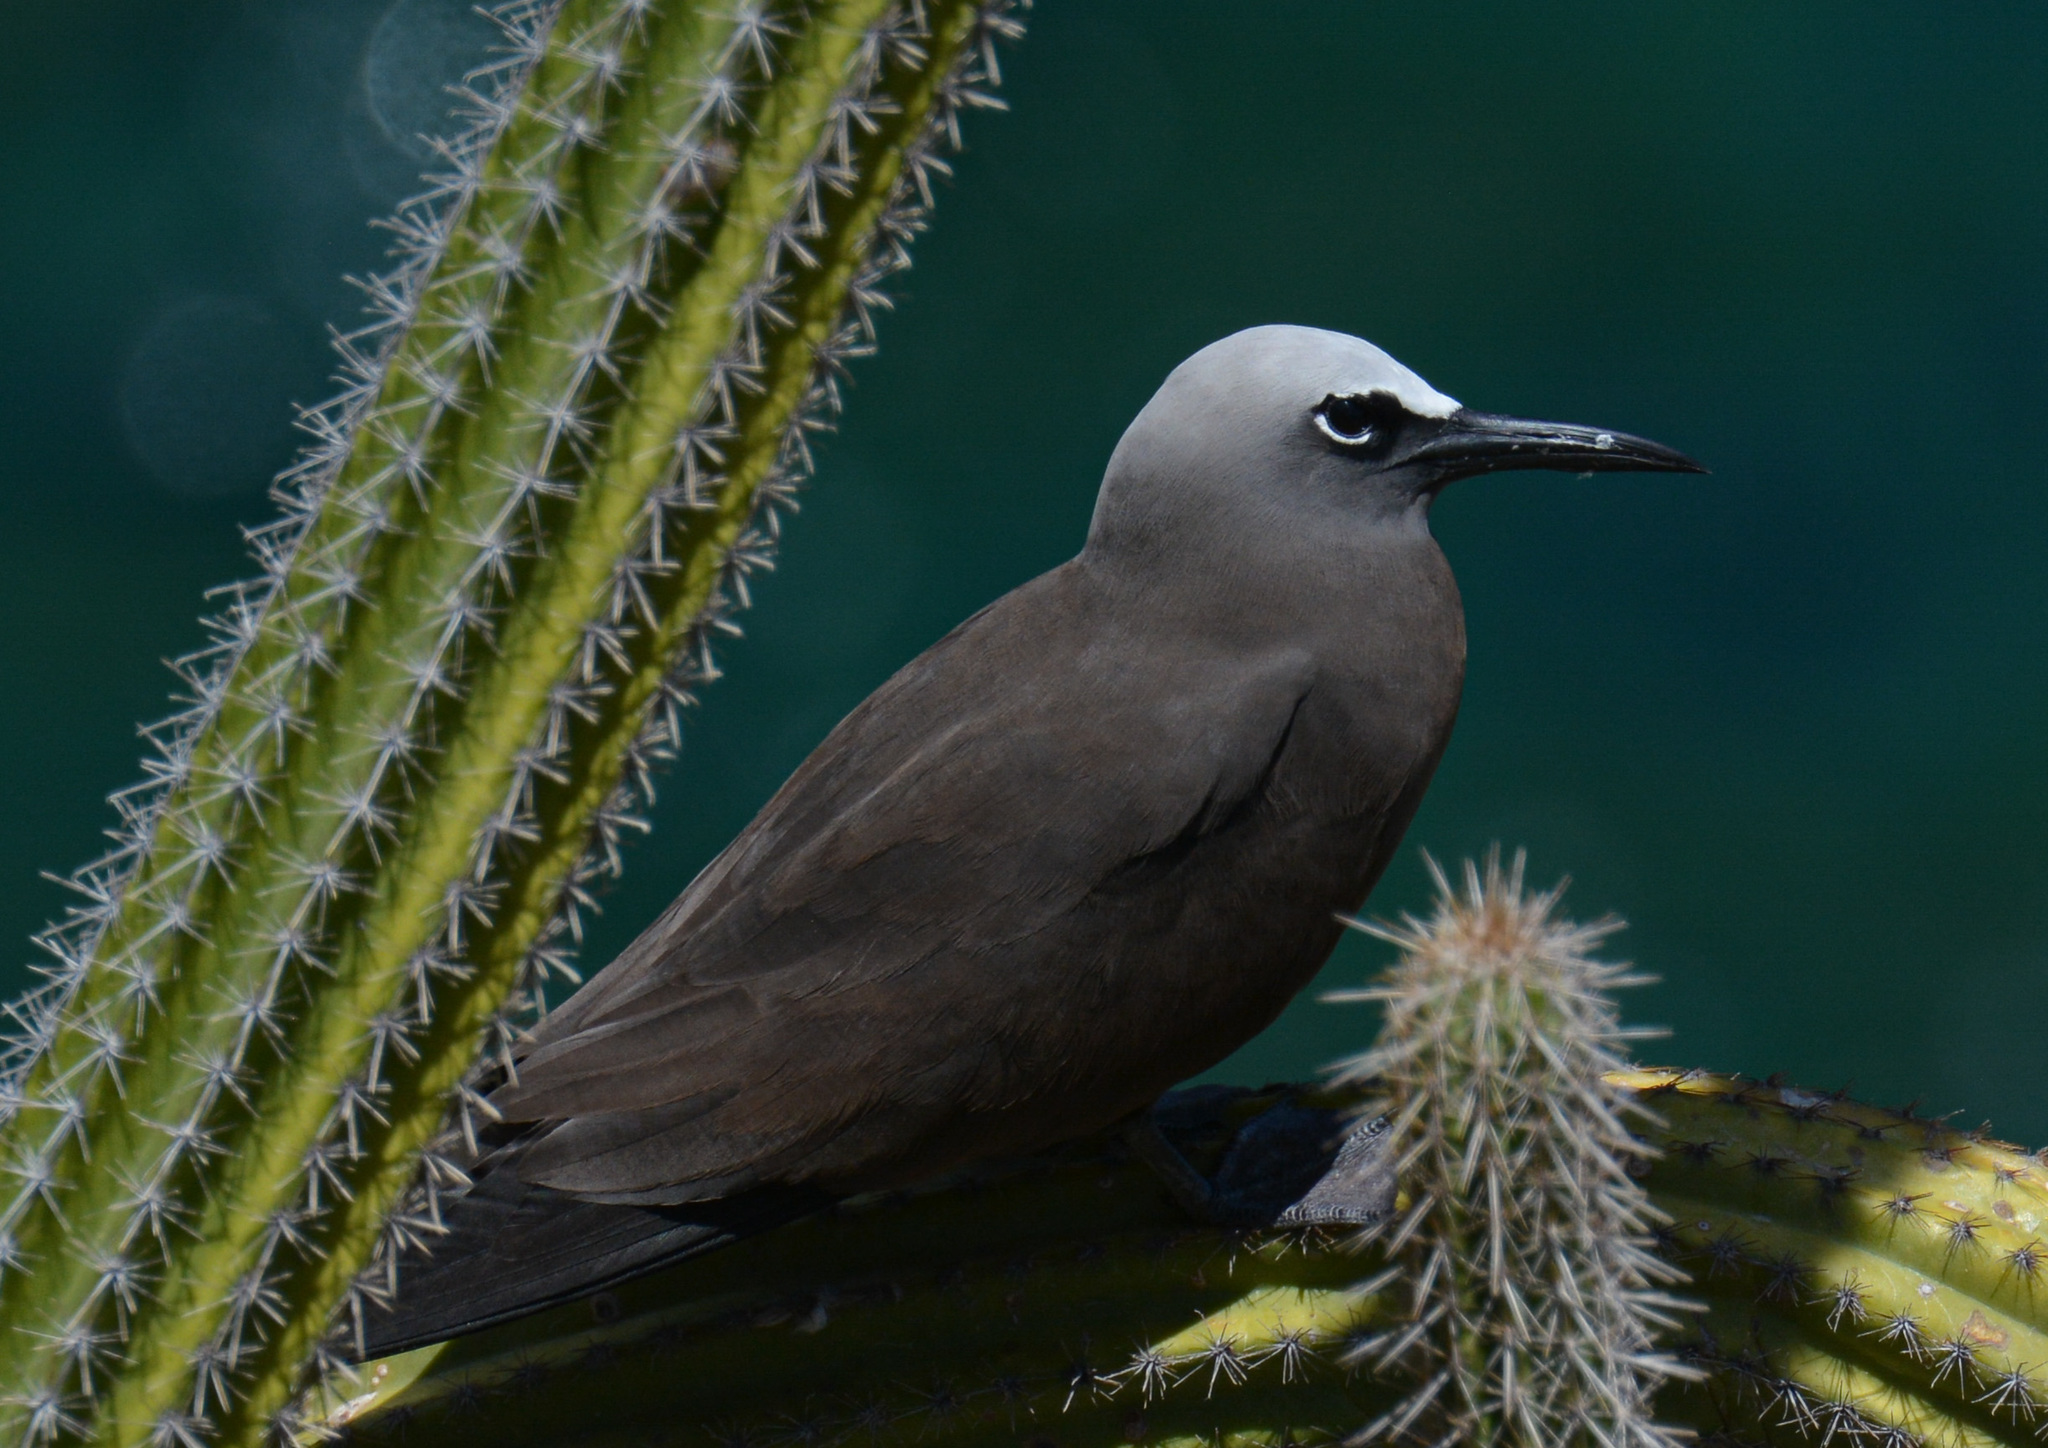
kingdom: Animalia
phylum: Chordata
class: Aves
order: Charadriiformes
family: Laridae
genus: Anous
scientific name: Anous stolidus
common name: Brown noddy
